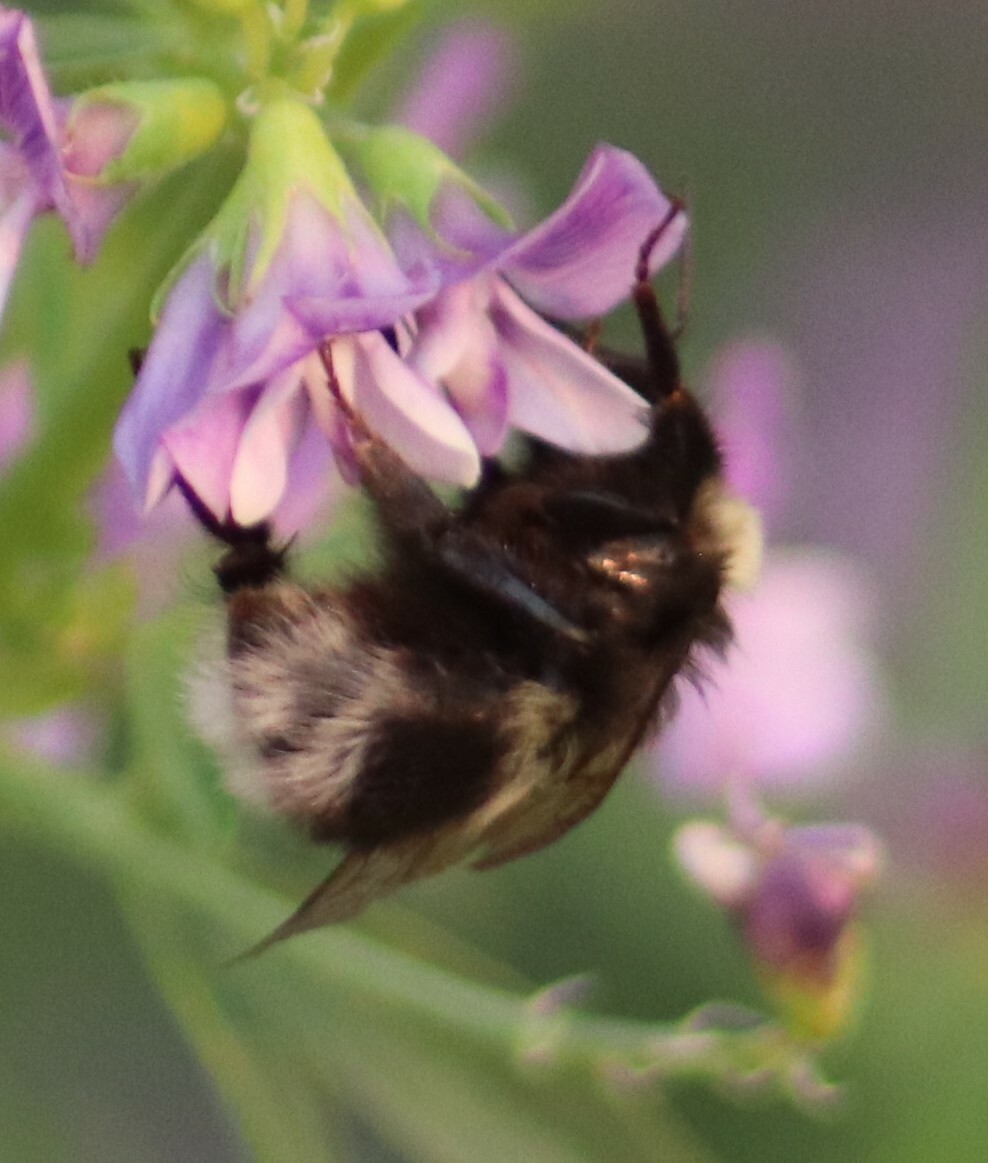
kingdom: Animalia
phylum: Arthropoda
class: Insecta
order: Hymenoptera
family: Apidae
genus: Bombus
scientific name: Bombus cryptarum
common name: Cryptic bumblebee
